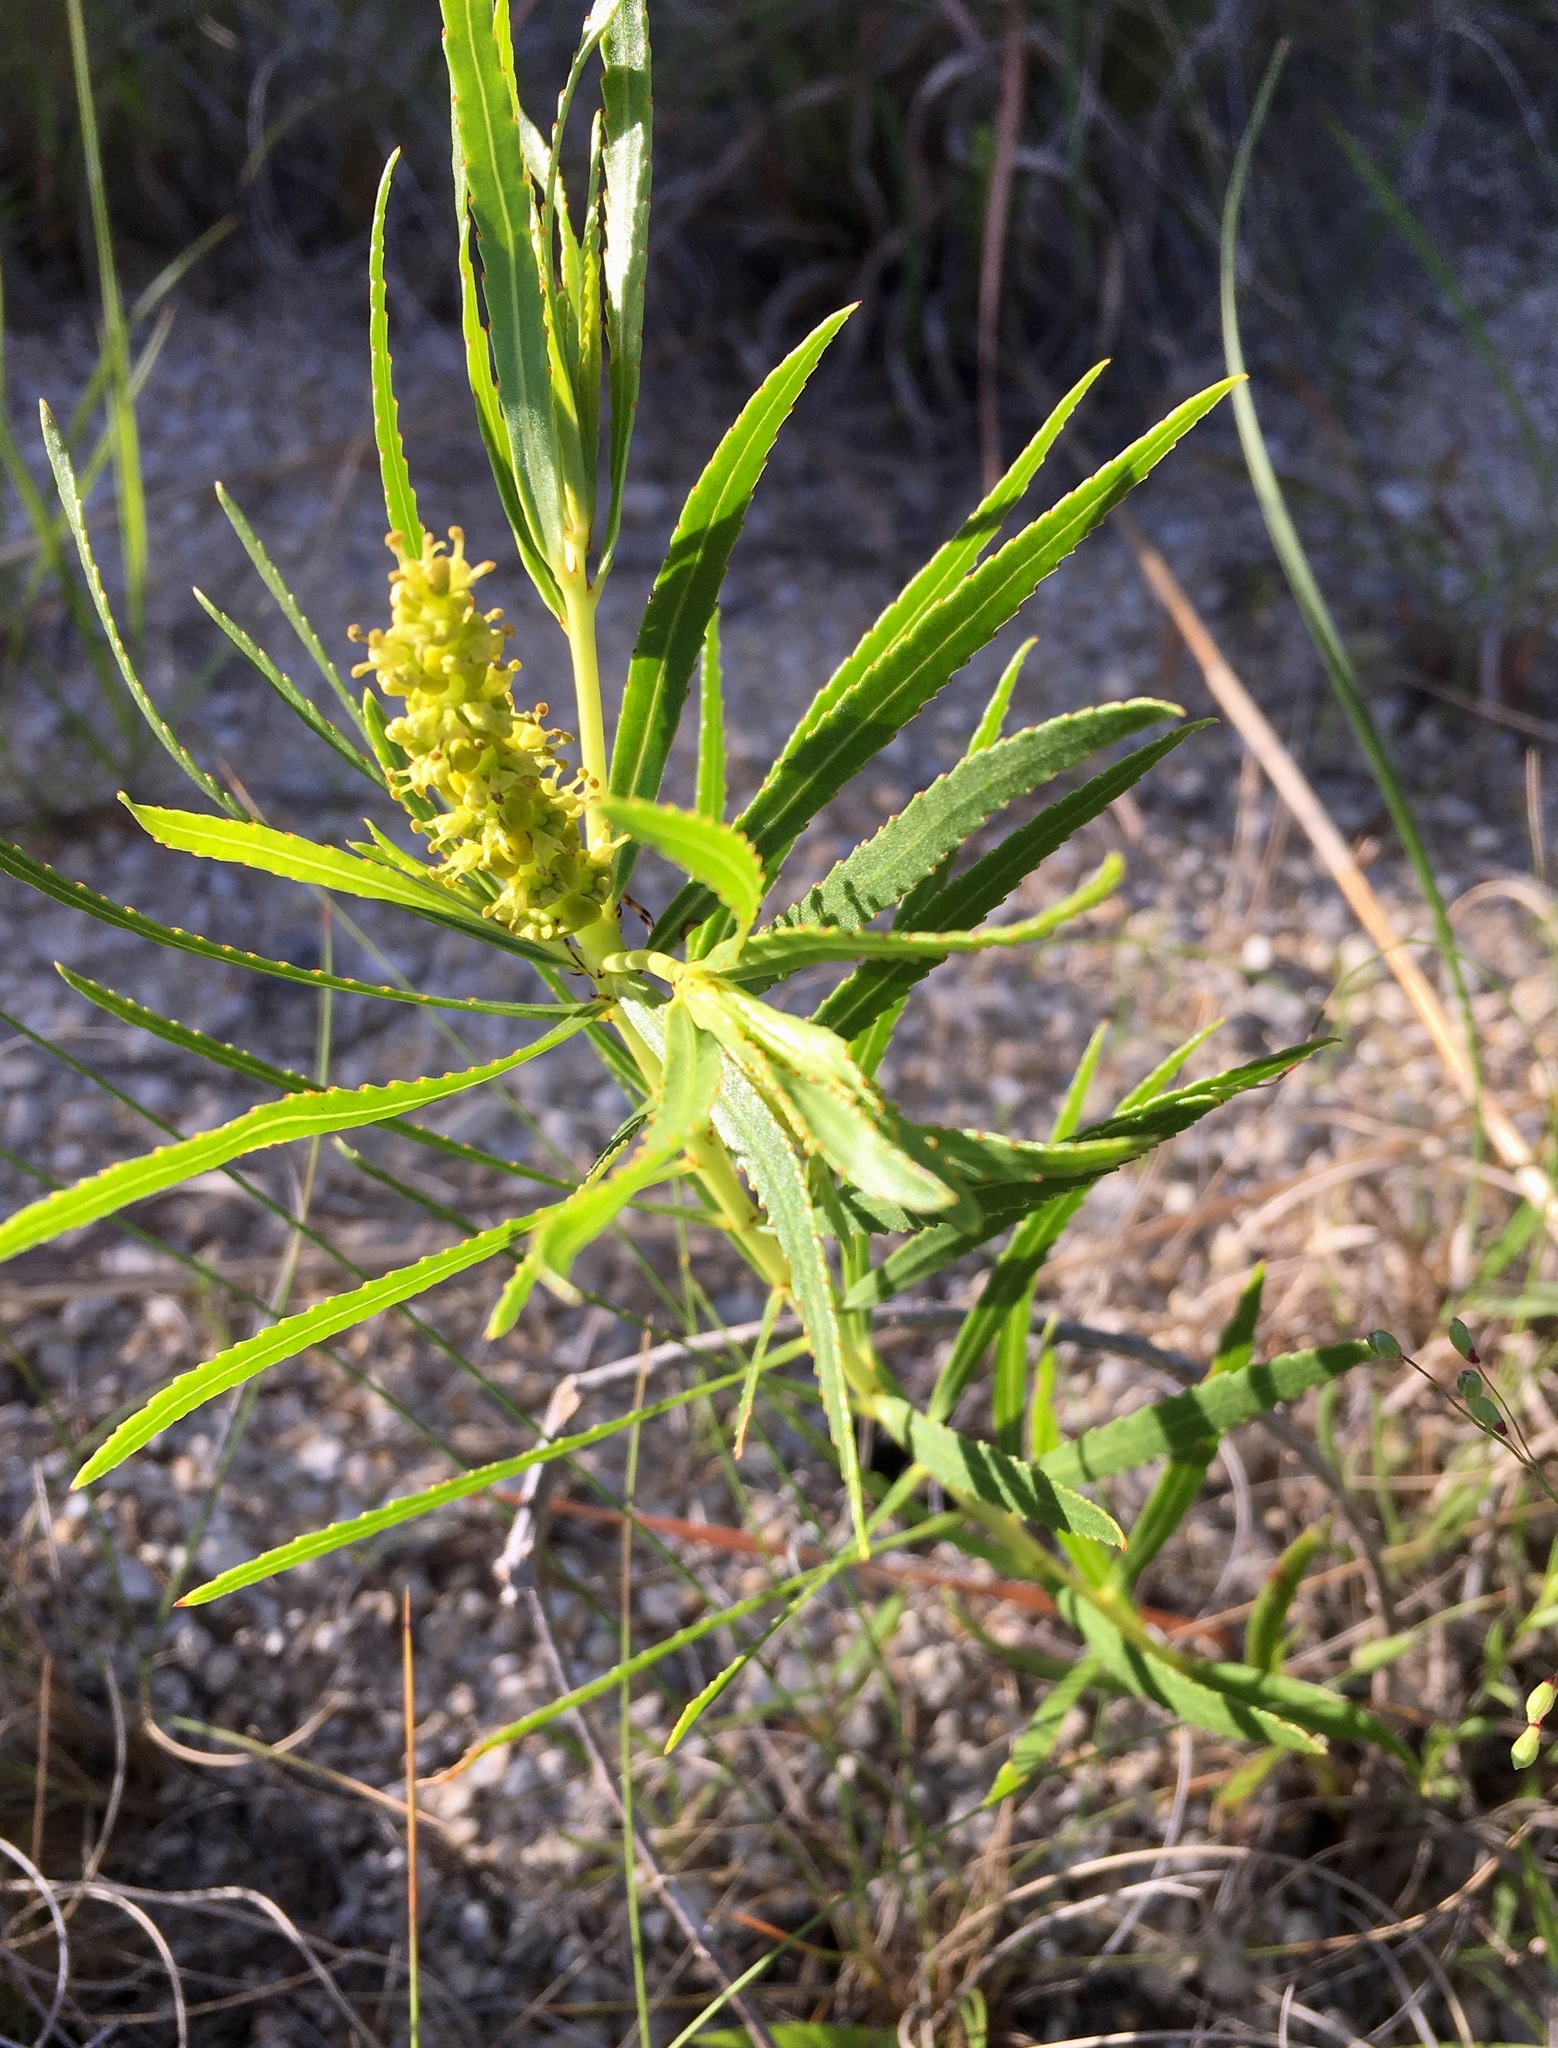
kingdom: Plantae
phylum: Tracheophyta
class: Magnoliopsida
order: Malpighiales
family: Euphorbiaceae
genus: Stillingia
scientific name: Stillingia texana
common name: Texas stillingia
